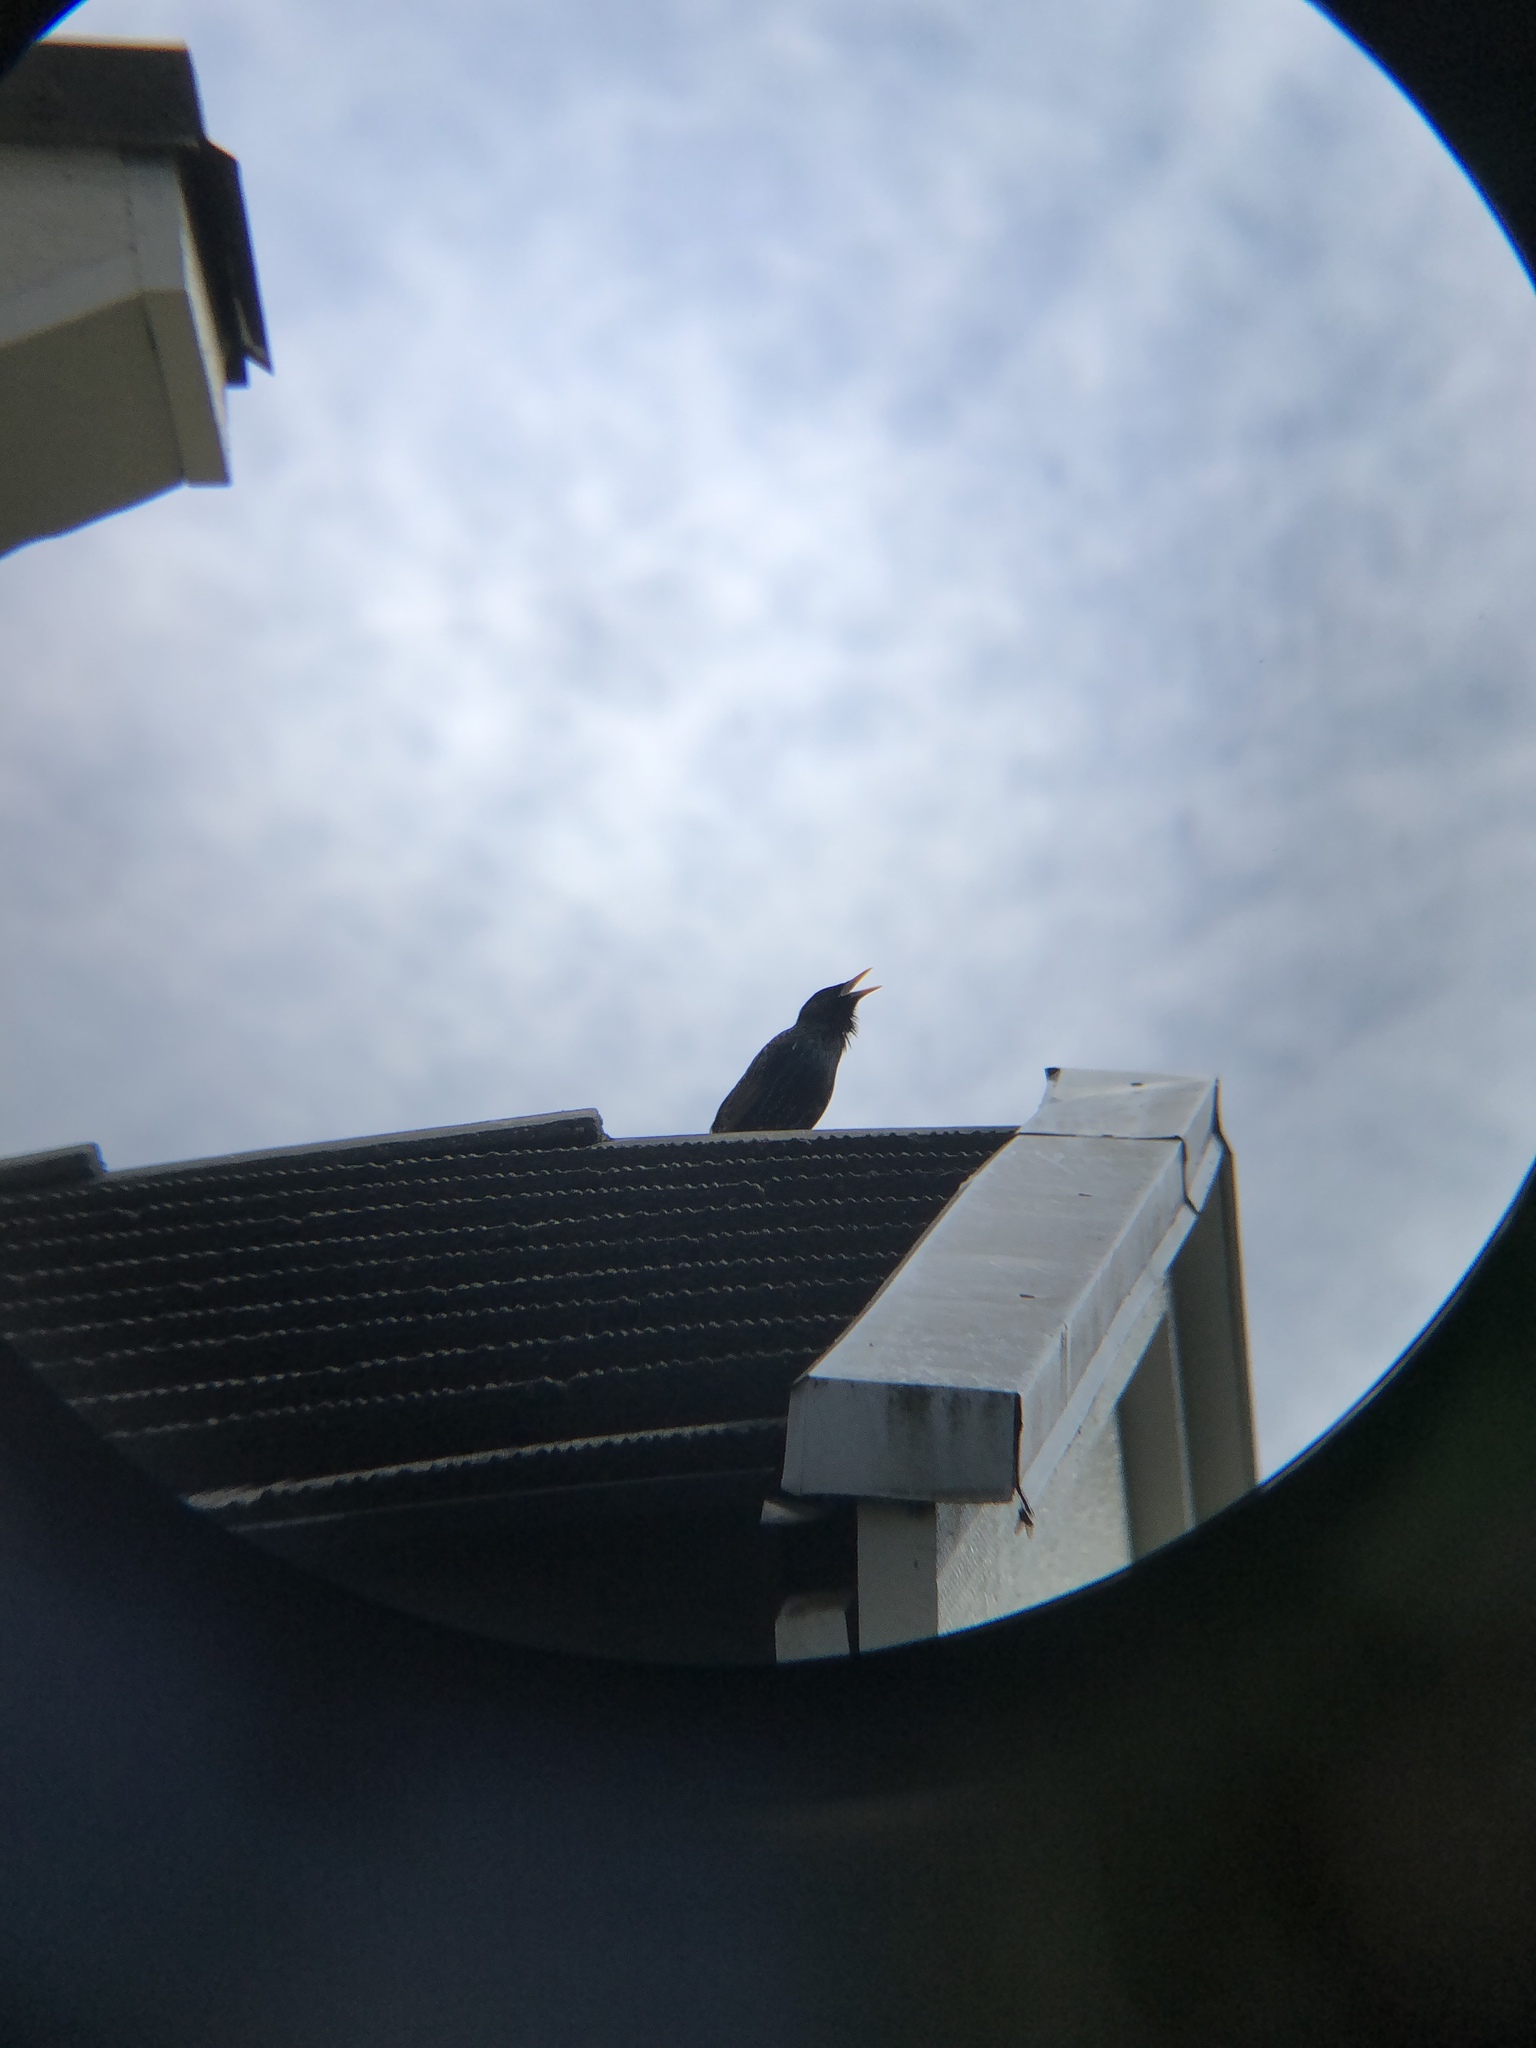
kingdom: Animalia
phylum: Chordata
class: Aves
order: Passeriformes
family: Sturnidae
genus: Sturnus
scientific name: Sturnus vulgaris
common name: Common starling
